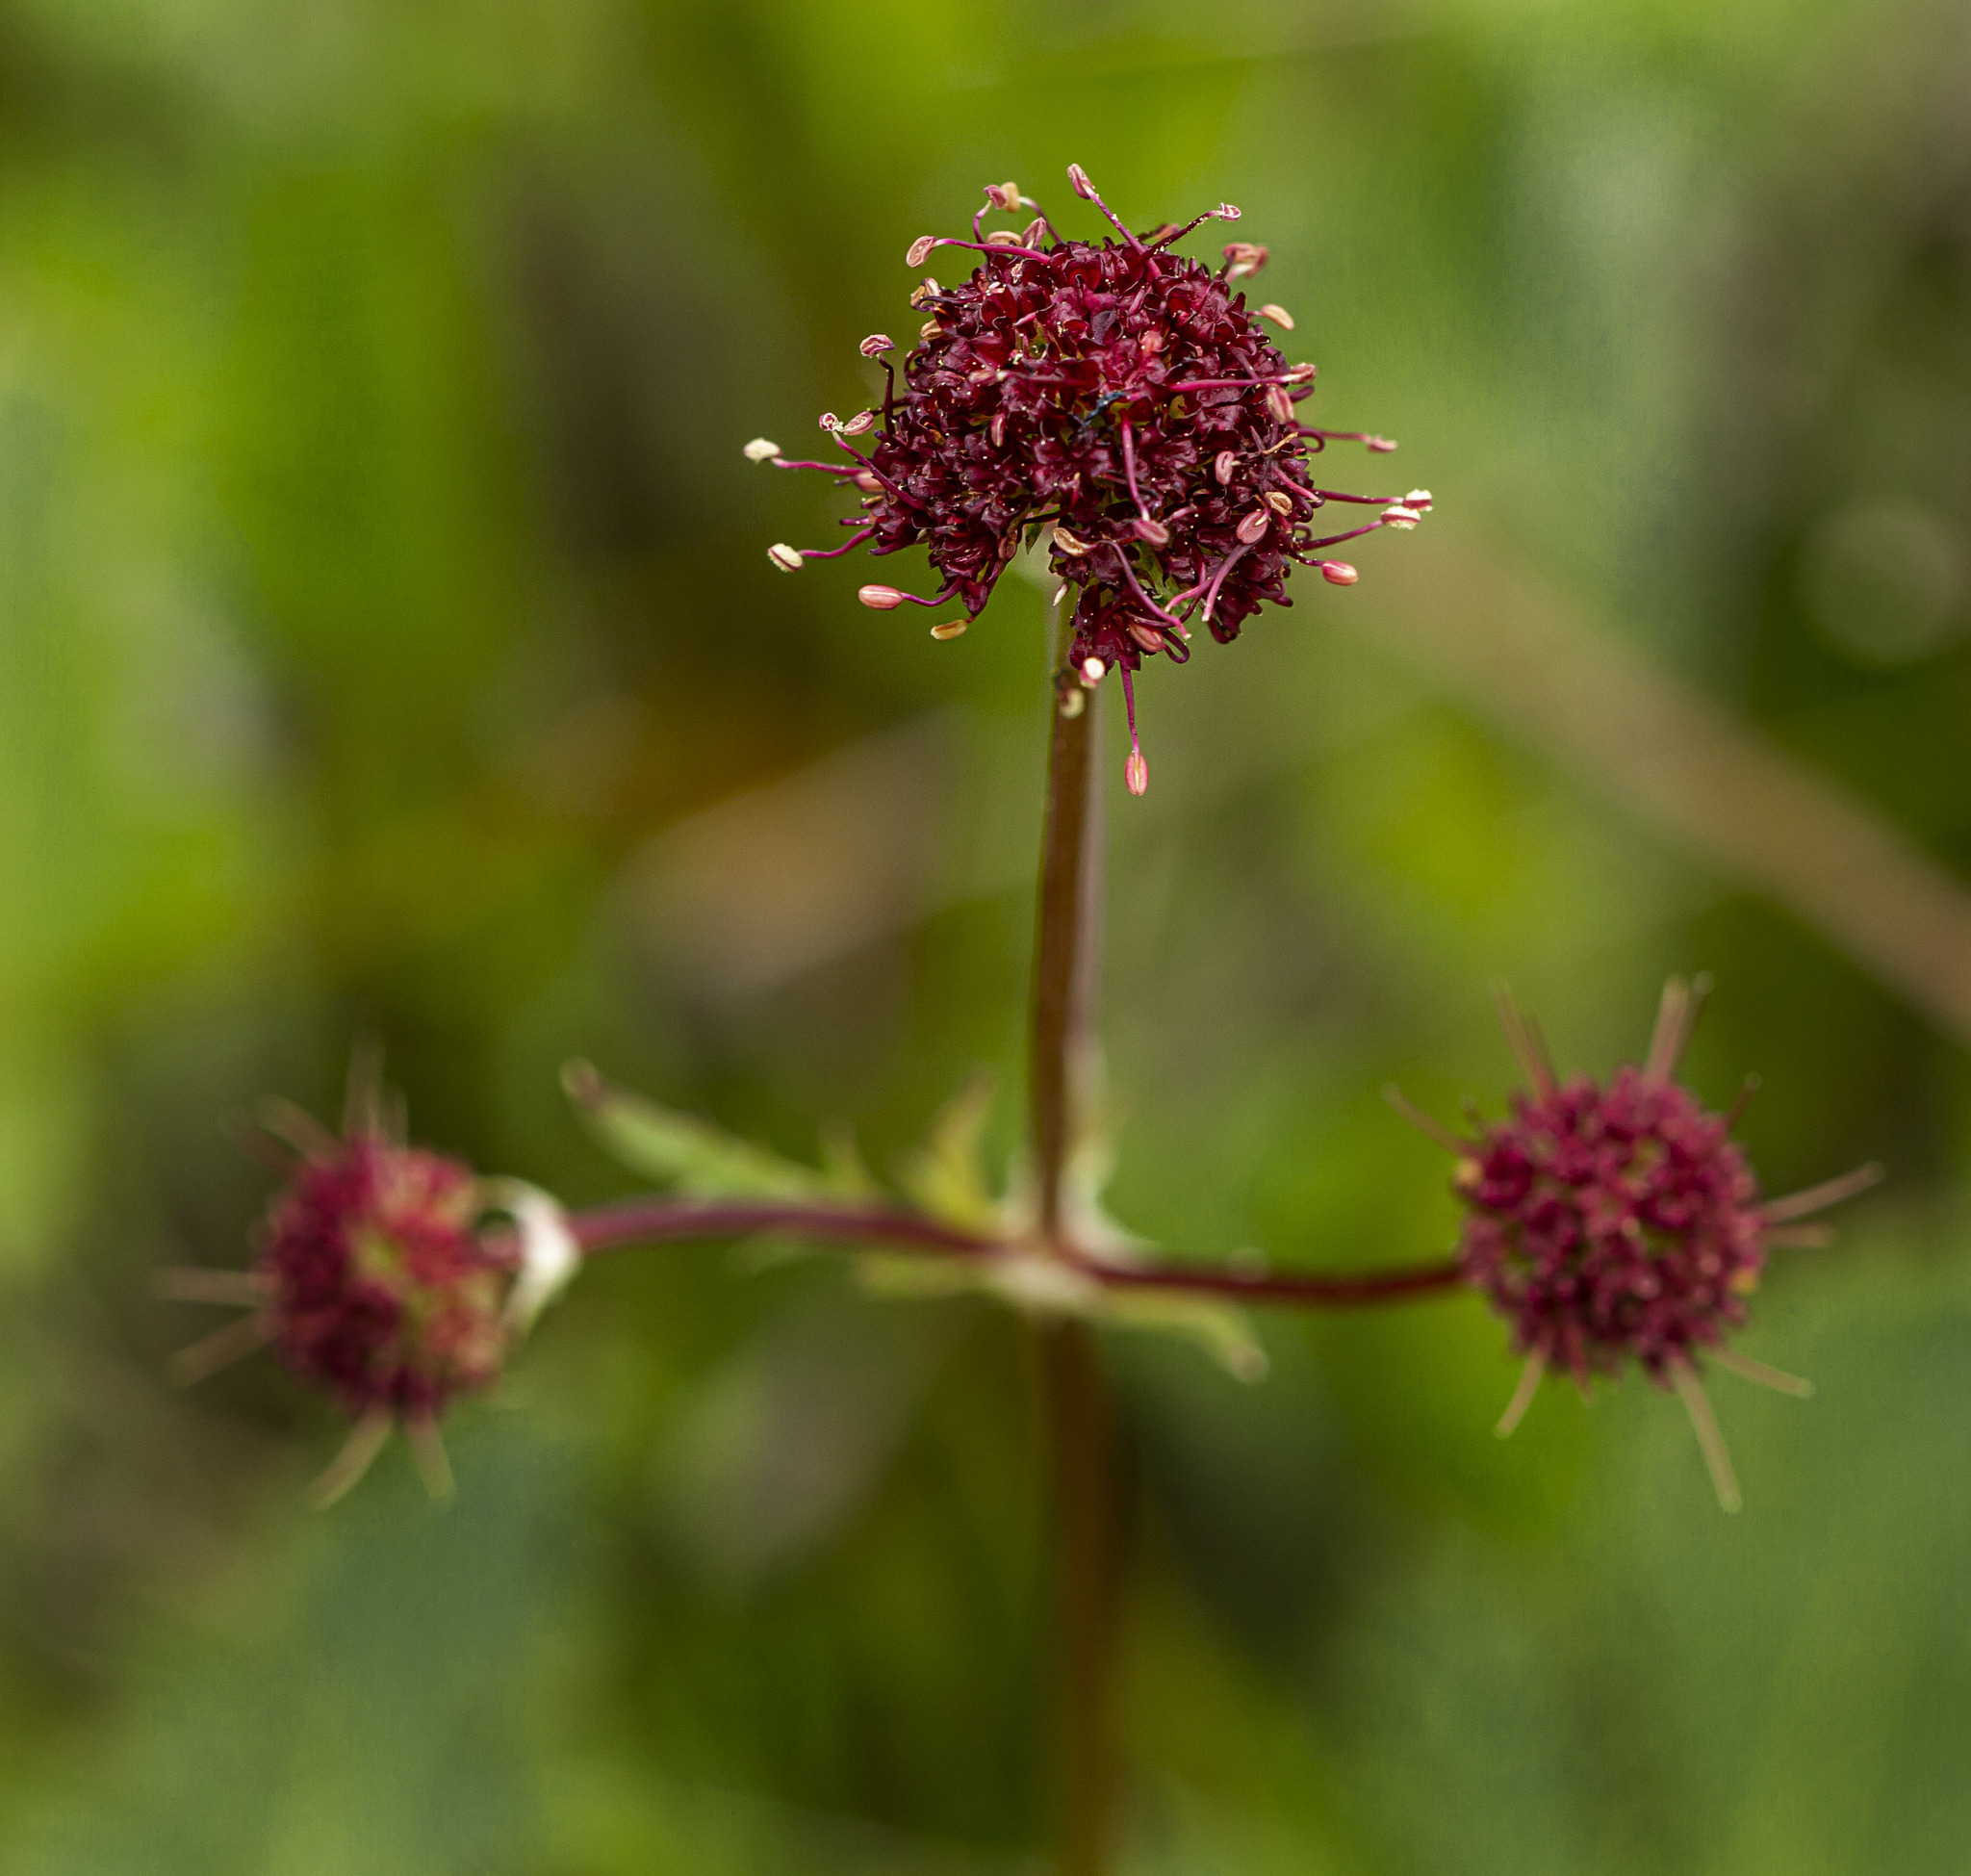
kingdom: Plantae
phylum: Tracheophyta
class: Magnoliopsida
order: Apiales
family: Apiaceae
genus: Sanicula
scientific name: Sanicula bipinnatifida
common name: Shoe-buttons
